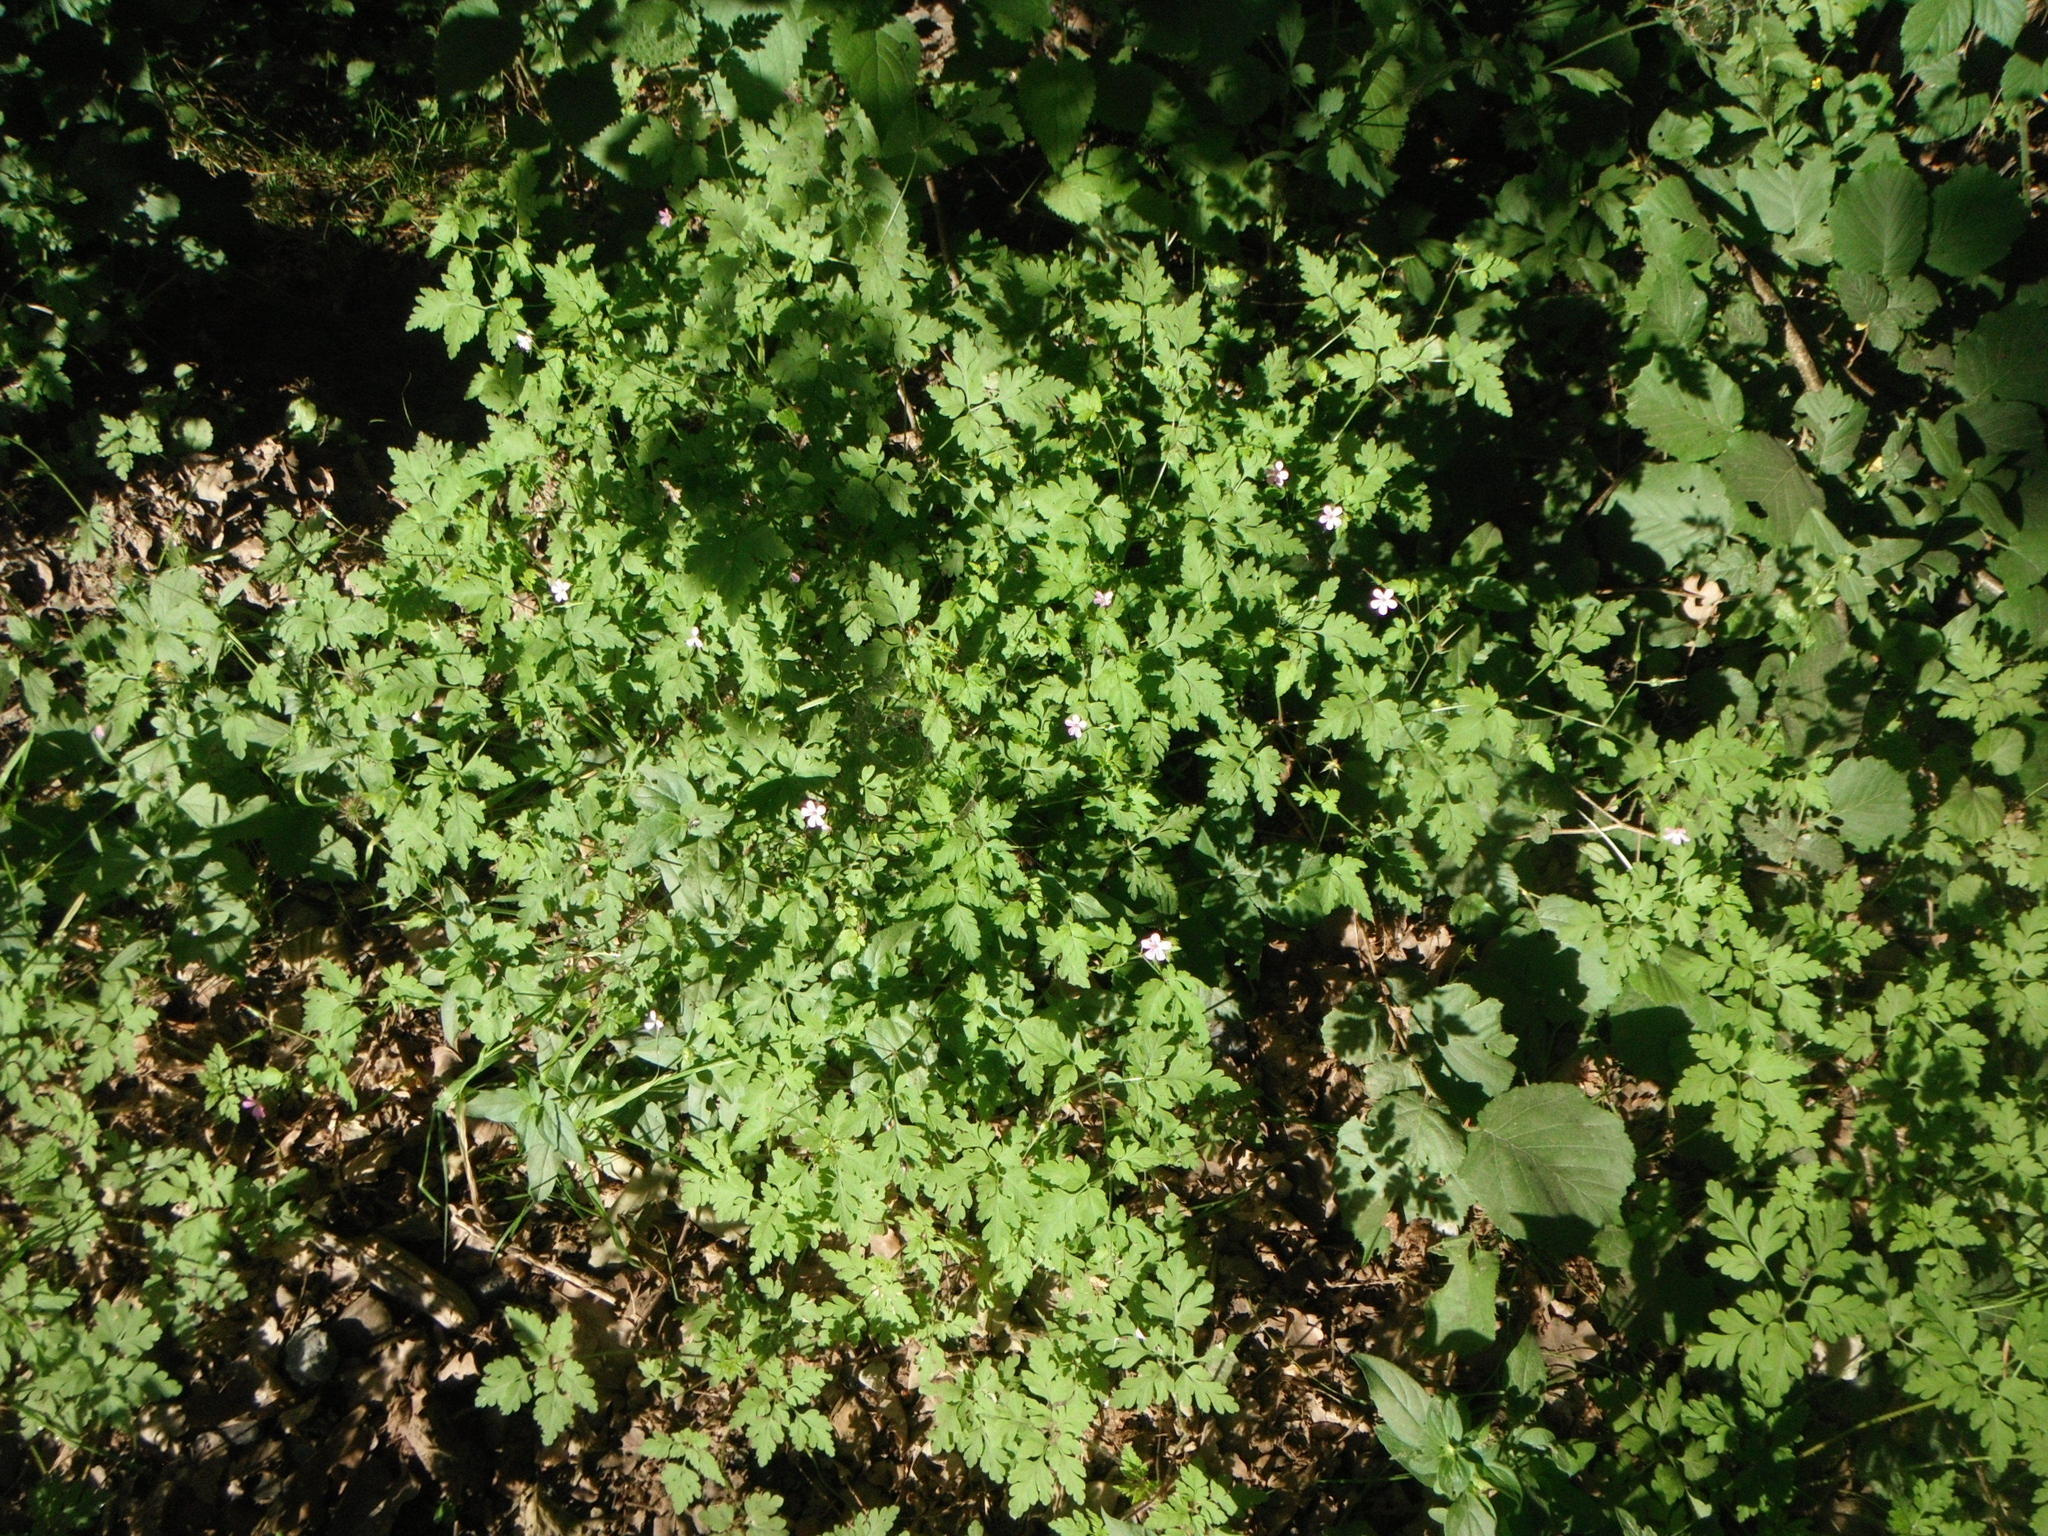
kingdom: Plantae
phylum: Tracheophyta
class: Magnoliopsida
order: Geraniales
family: Geraniaceae
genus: Geranium
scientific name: Geranium robertianum
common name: Herb-robert
